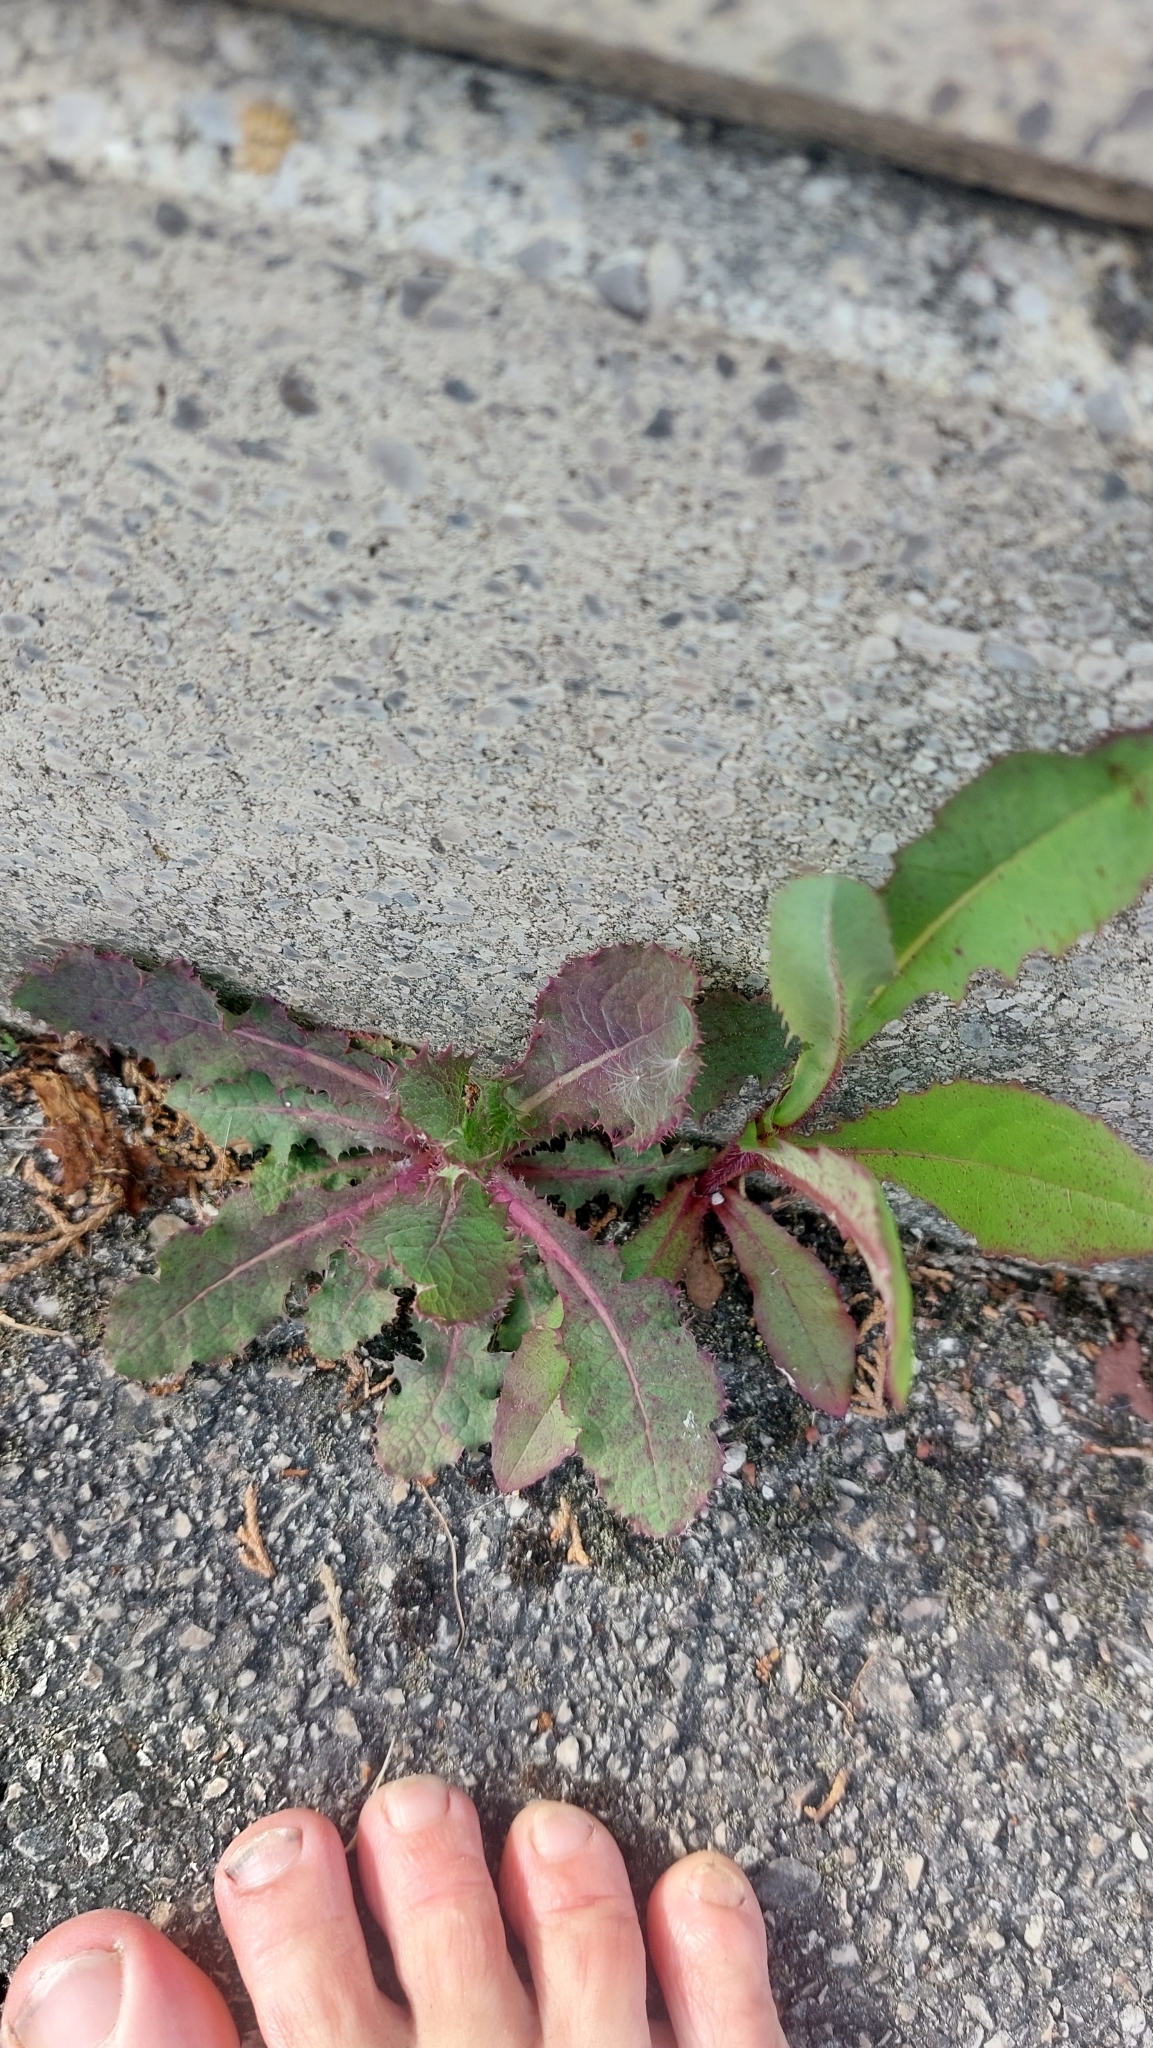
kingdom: Plantae
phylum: Tracheophyta
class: Magnoliopsida
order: Asterales
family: Asteraceae
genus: Sonchus
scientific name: Sonchus oleraceus
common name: Common sowthistle
